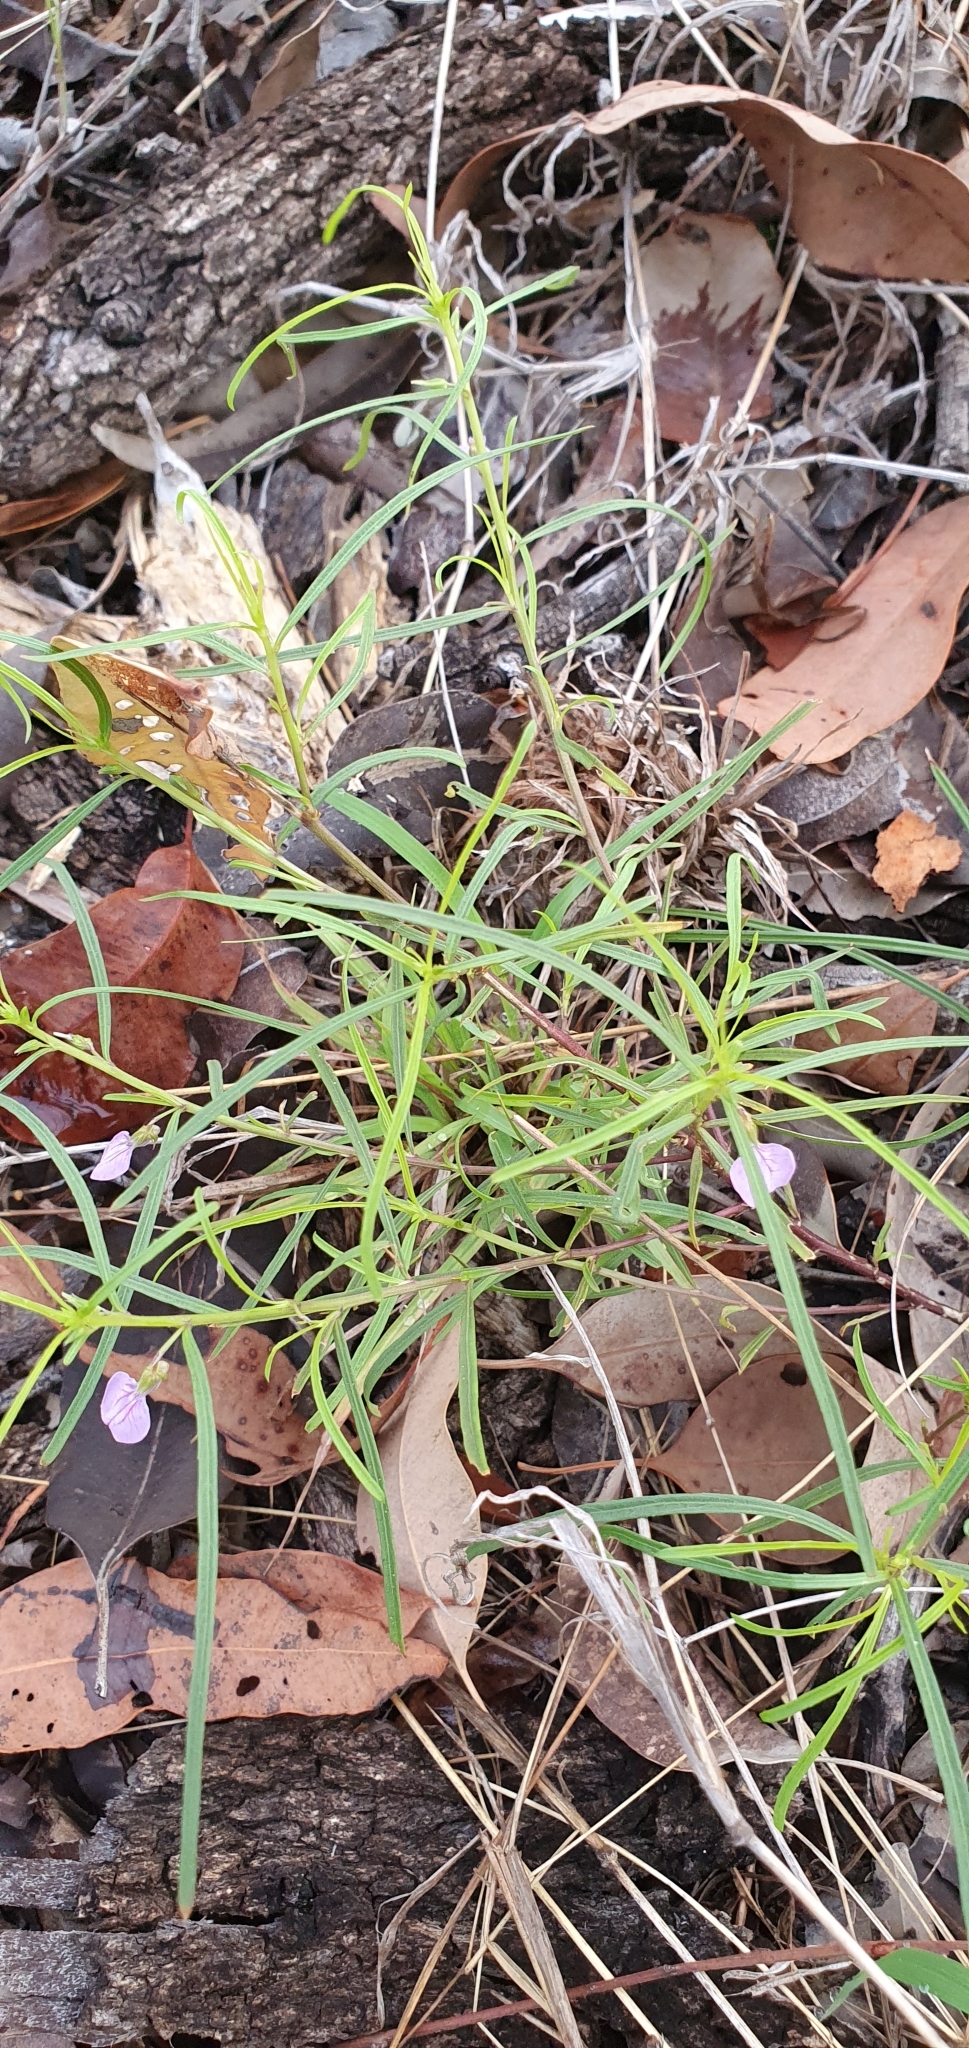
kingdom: Plantae
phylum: Tracheophyta
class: Magnoliopsida
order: Malpighiales
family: Violaceae
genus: Pigea
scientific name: Pigea enneasperma
